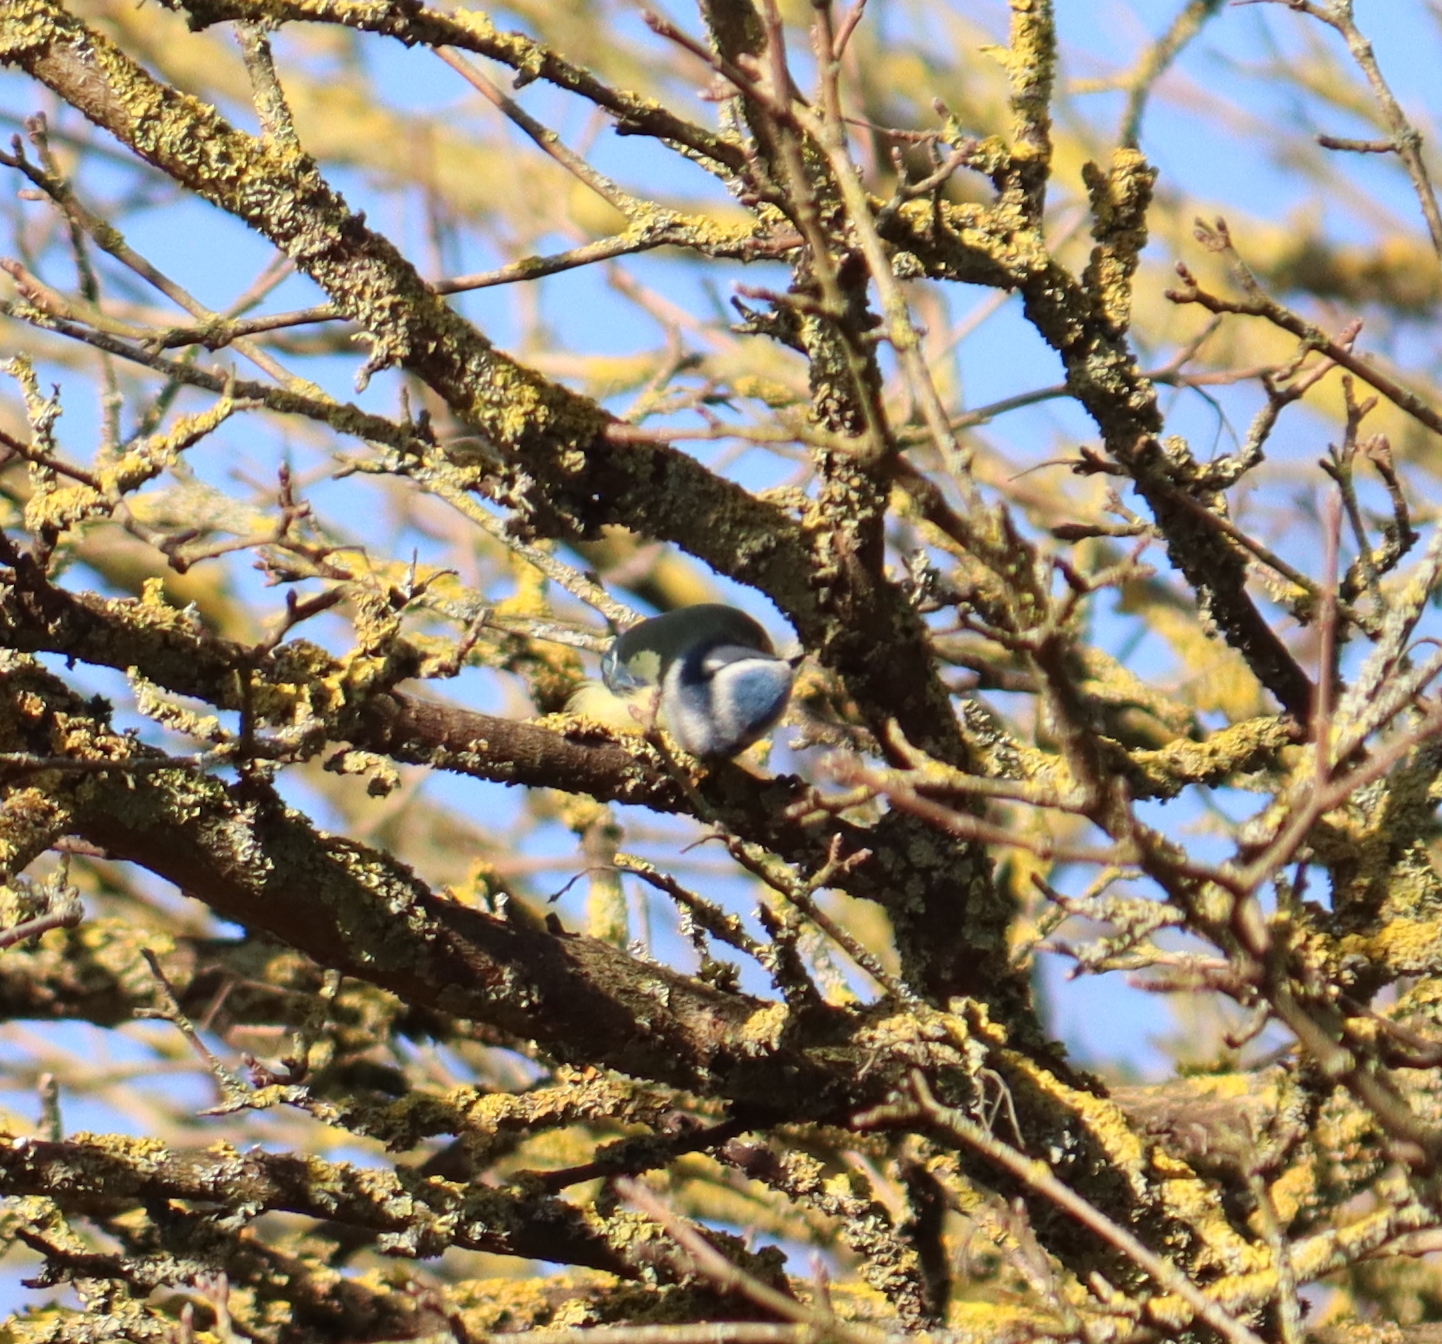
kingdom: Animalia
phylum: Chordata
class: Aves
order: Passeriformes
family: Paridae
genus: Cyanistes
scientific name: Cyanistes caeruleus
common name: Eurasian blue tit
